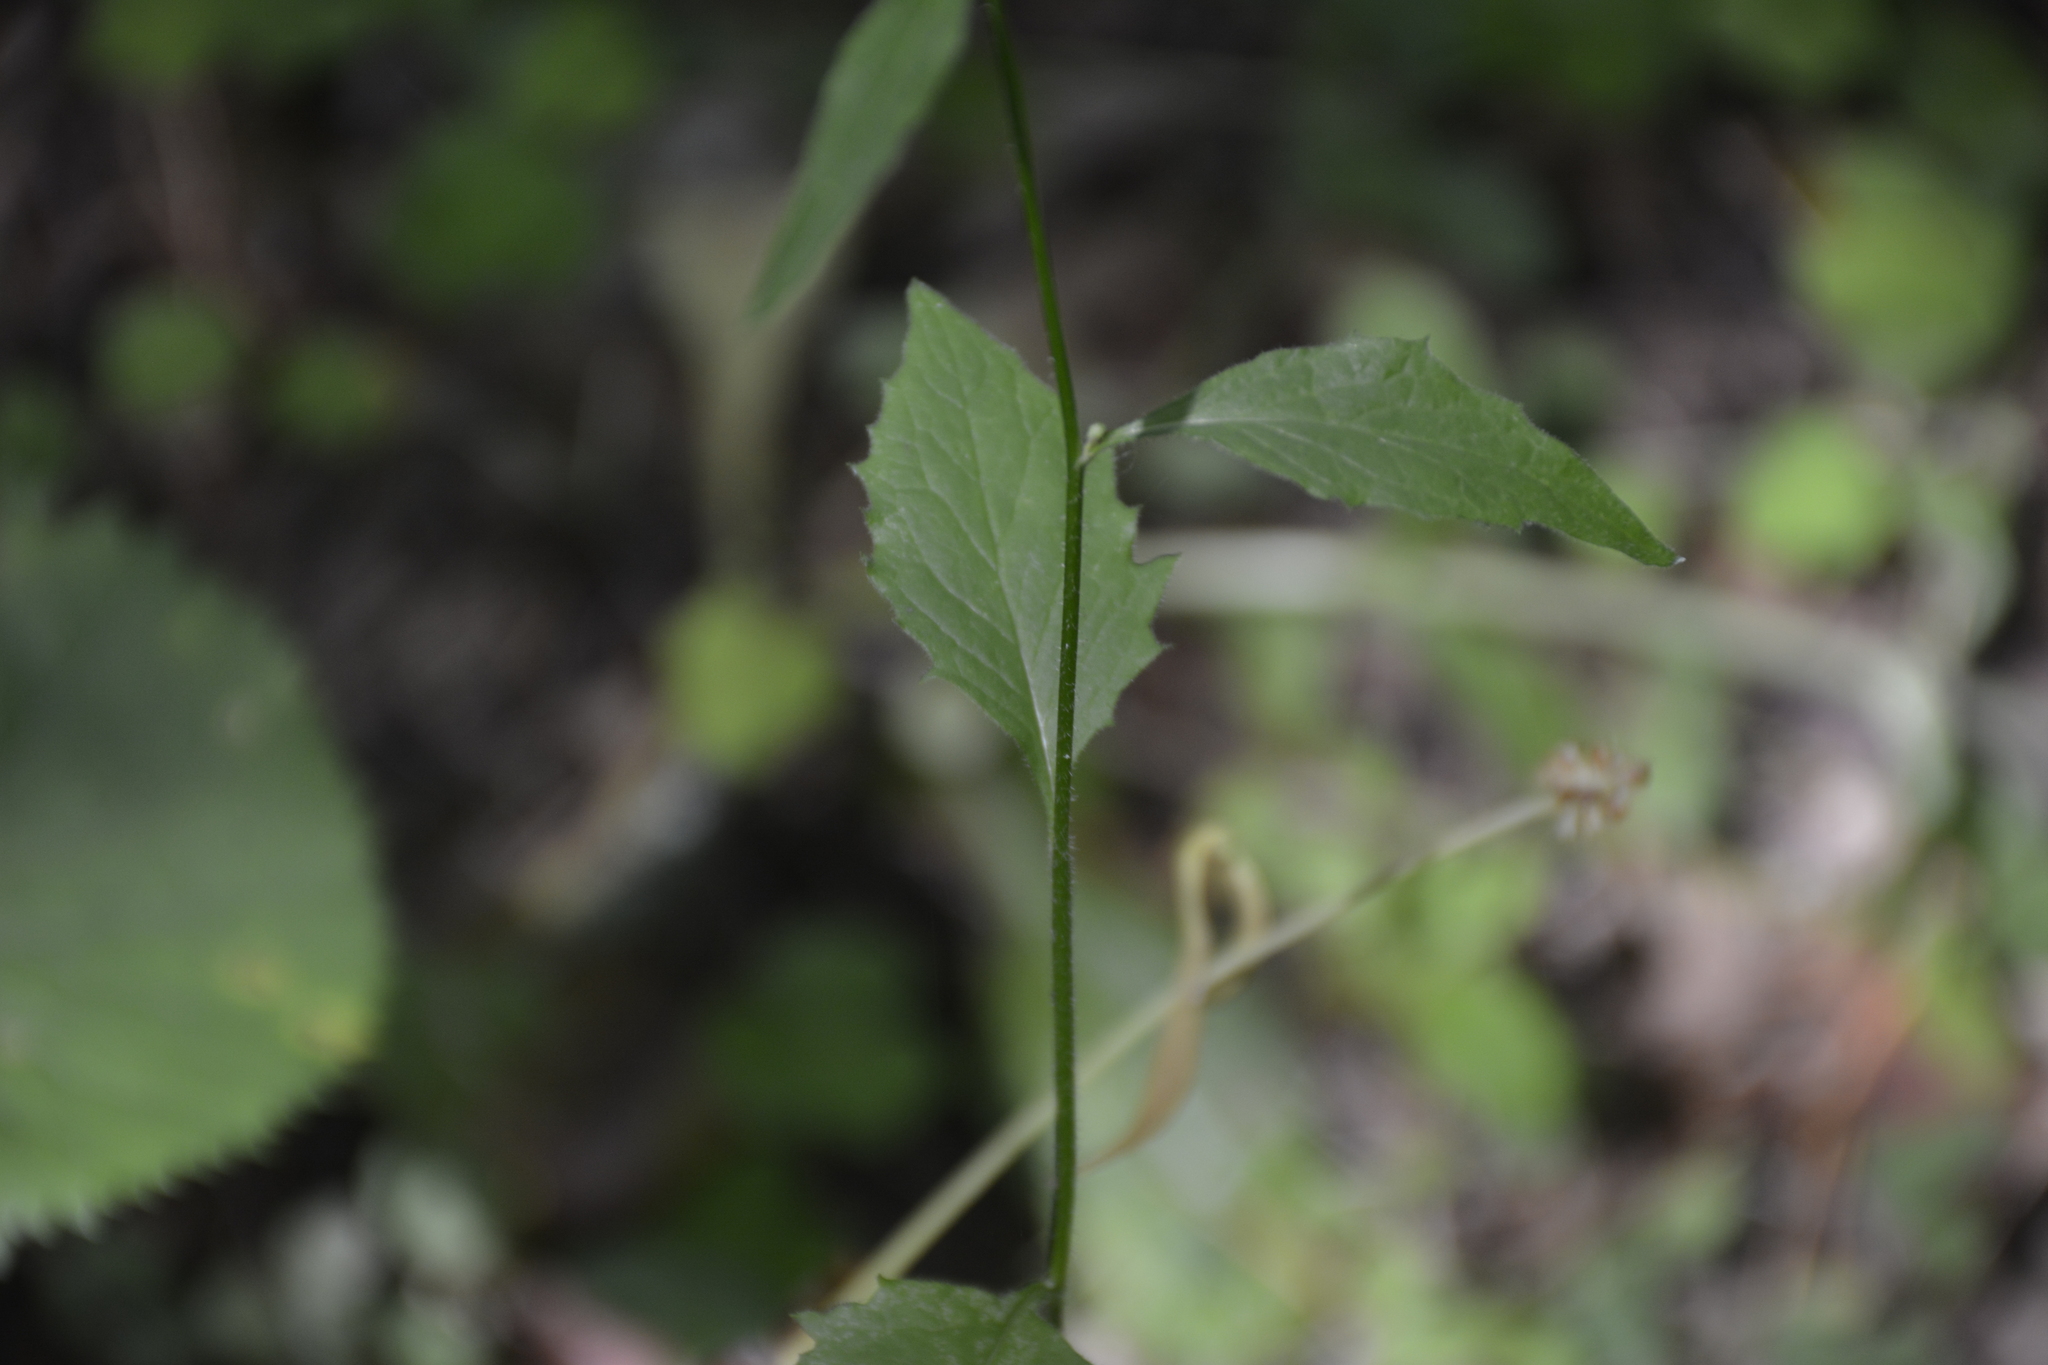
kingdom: Plantae
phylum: Tracheophyta
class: Magnoliopsida
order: Asterales
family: Asteraceae
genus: Lapsana
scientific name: Lapsana communis
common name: Nipplewort
